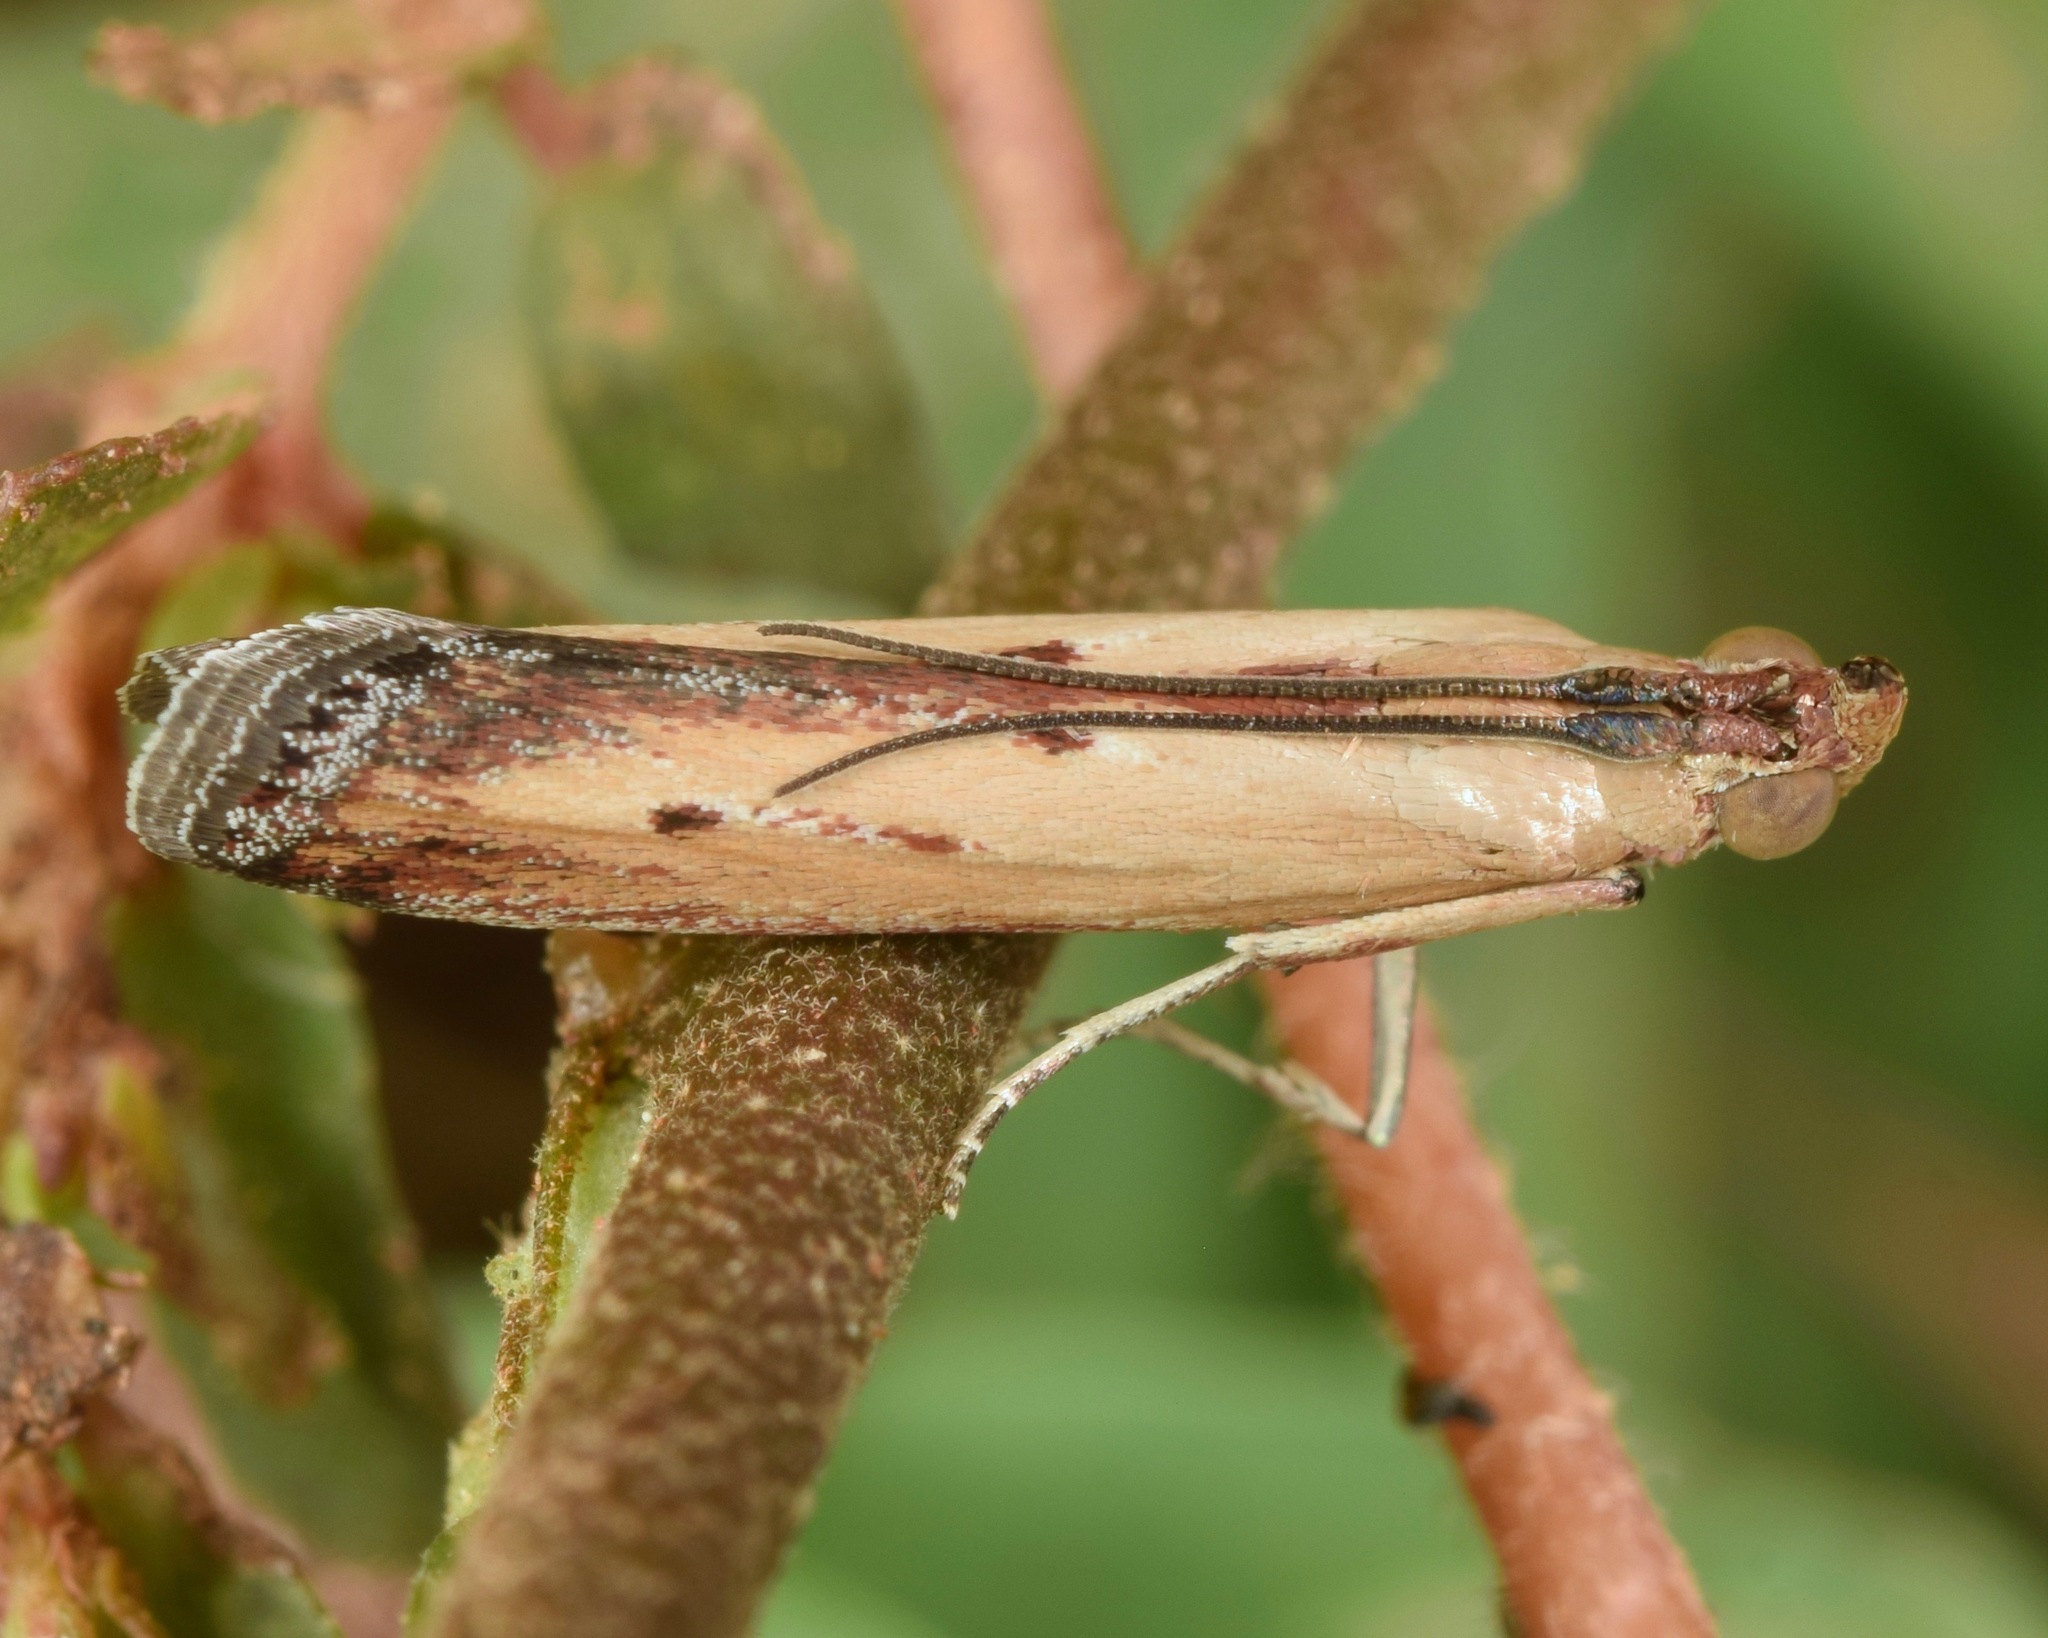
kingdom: Animalia
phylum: Arthropoda
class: Insecta
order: Lepidoptera
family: Pyralidae
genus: Elasmopalpus
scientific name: Elasmopalpus lignosella
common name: Lesser cornstalk borer
